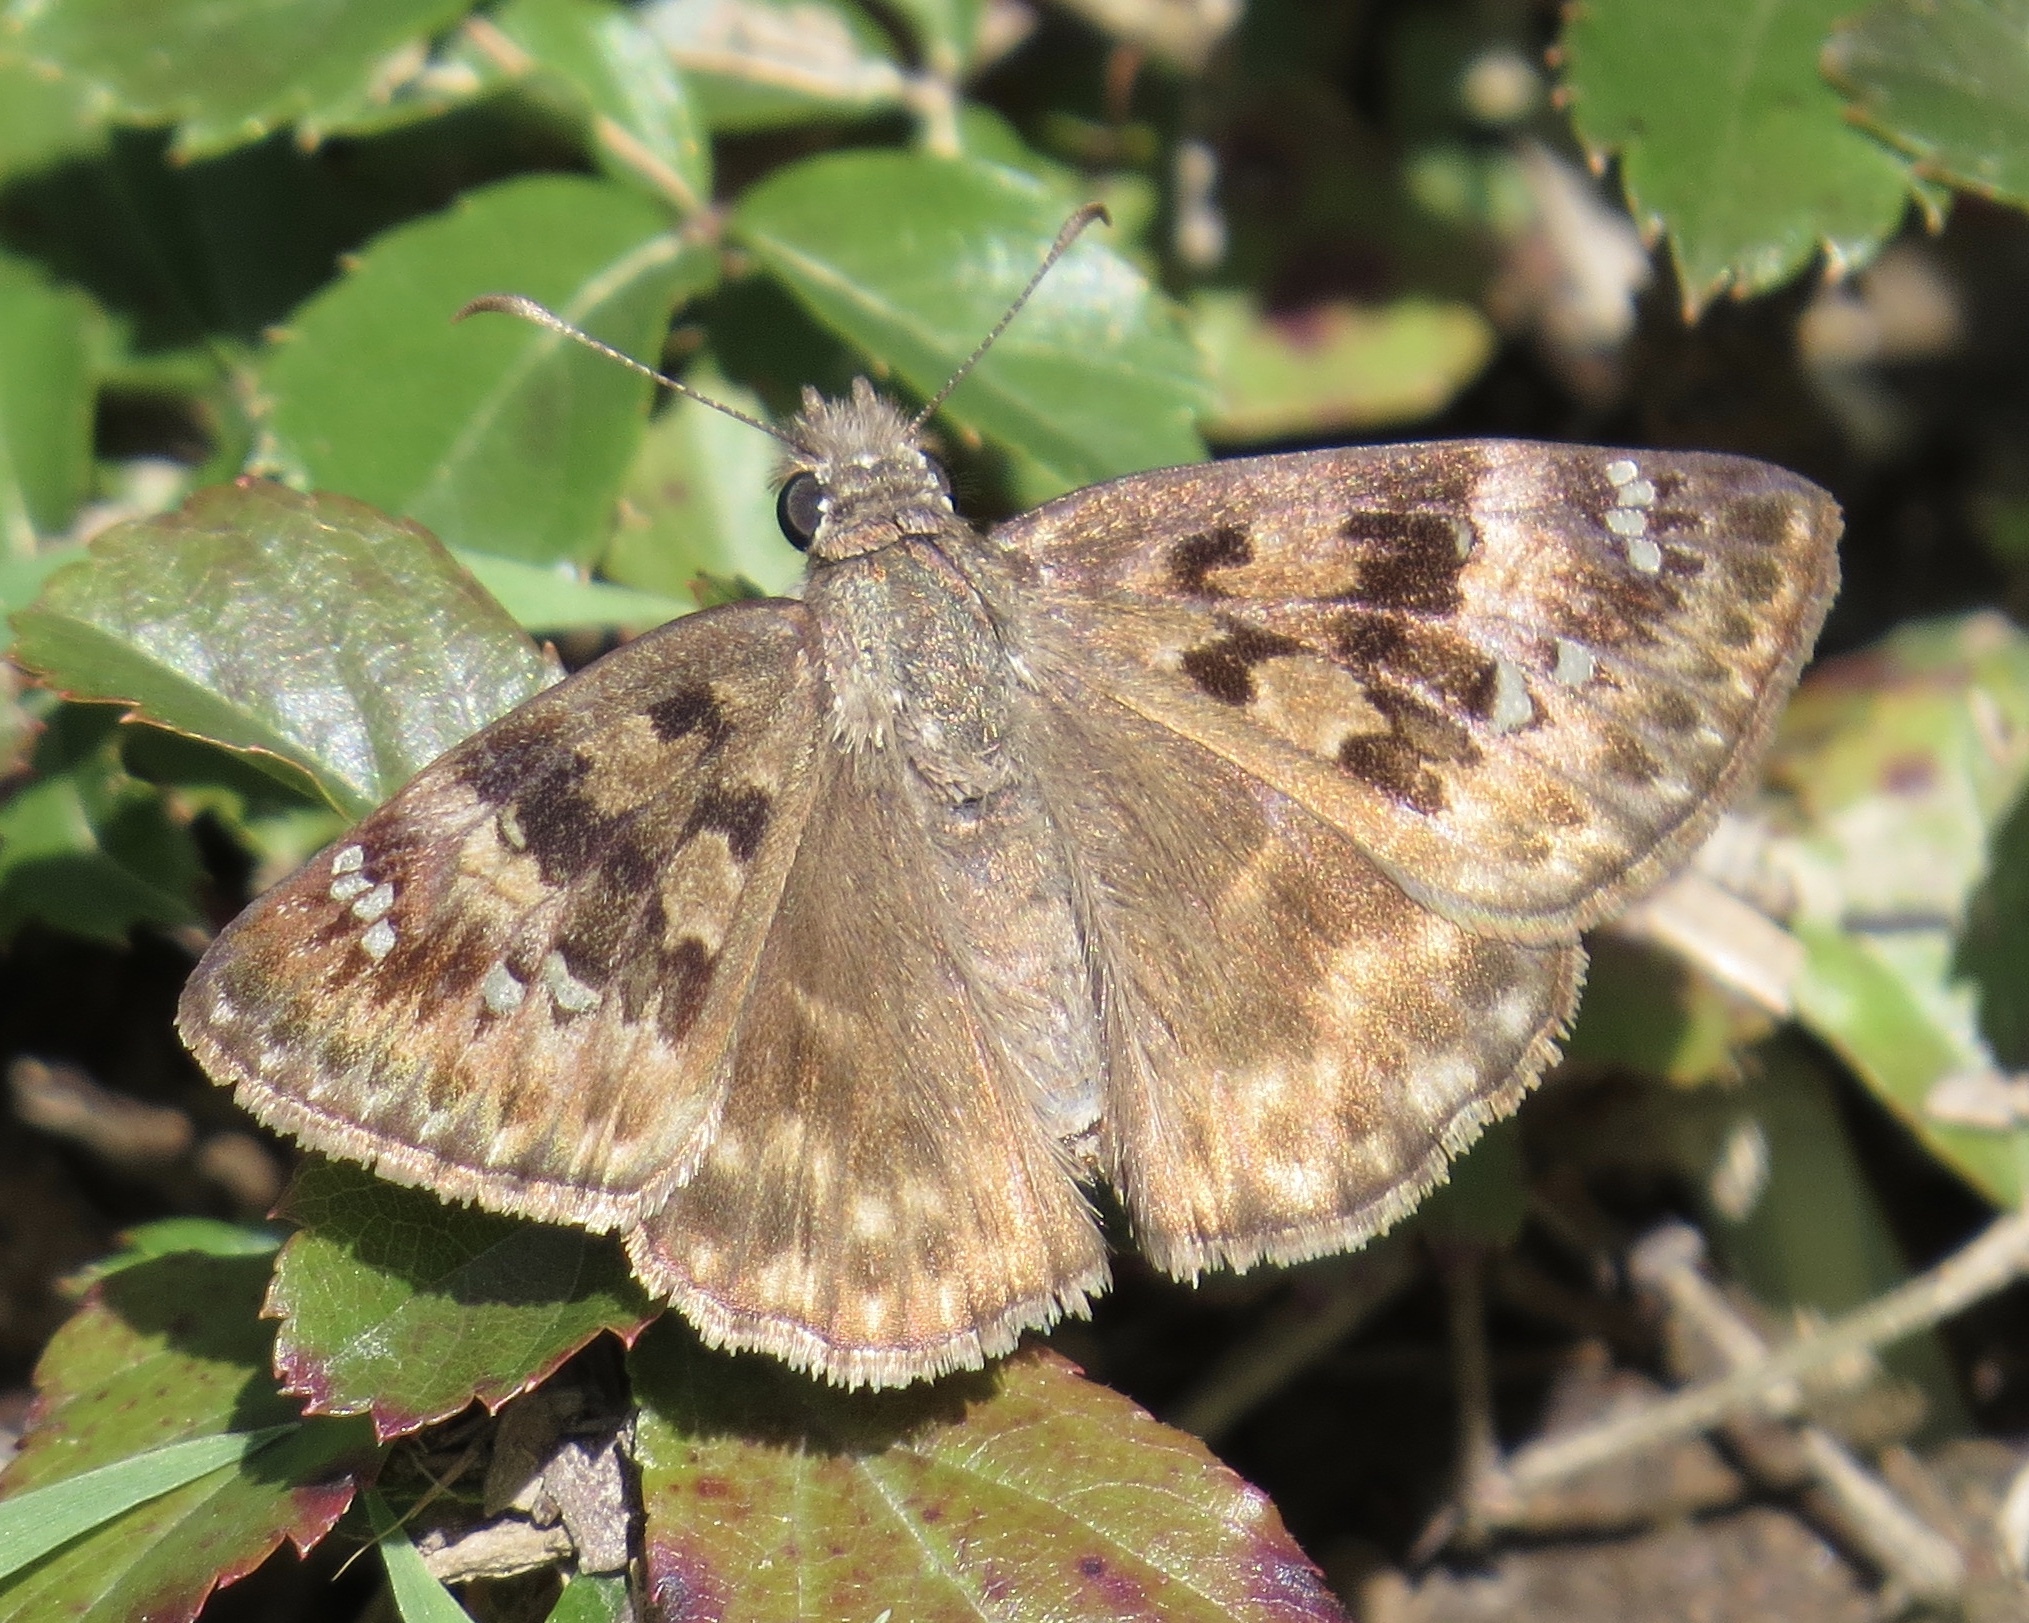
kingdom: Animalia
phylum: Arthropoda
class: Insecta
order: Lepidoptera
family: Hesperiidae
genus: Erynnis
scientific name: Erynnis horatius
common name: Horace's duskywing
